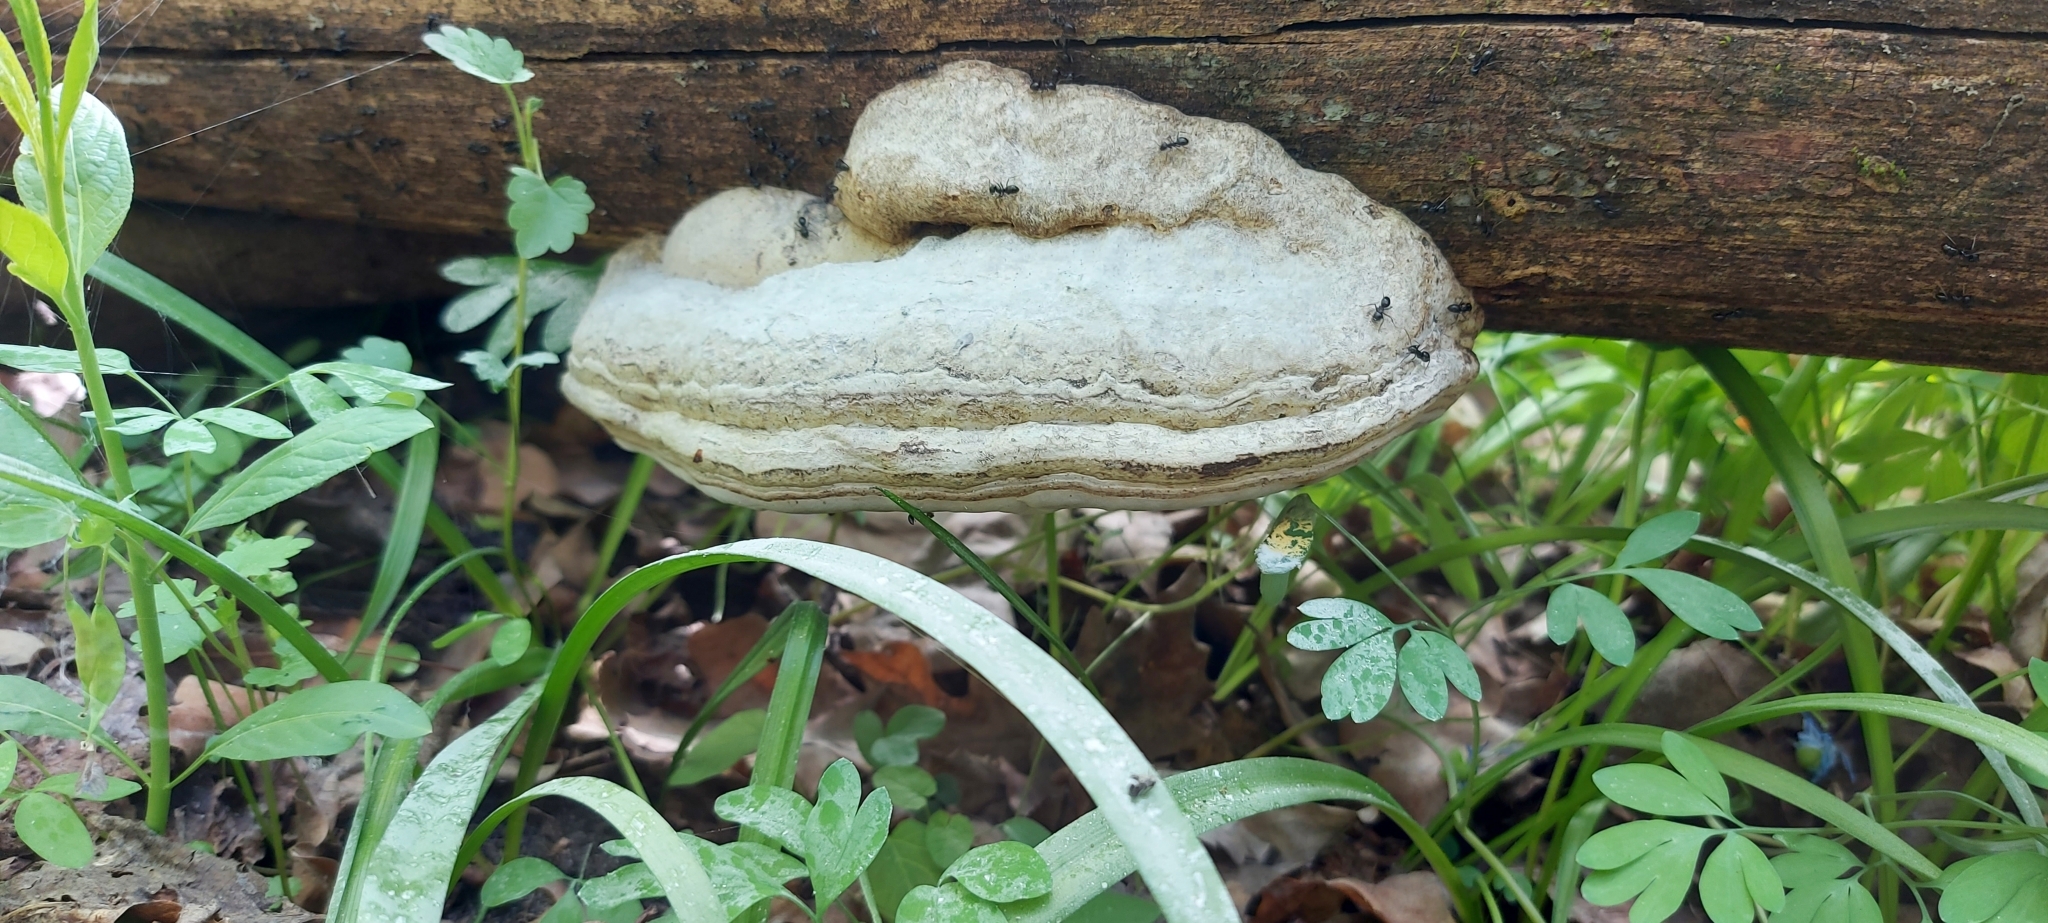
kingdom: Fungi
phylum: Basidiomycota
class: Agaricomycetes
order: Polyporales
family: Polyporaceae
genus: Fomes
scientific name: Fomes fomentarius
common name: Hoof fungus
